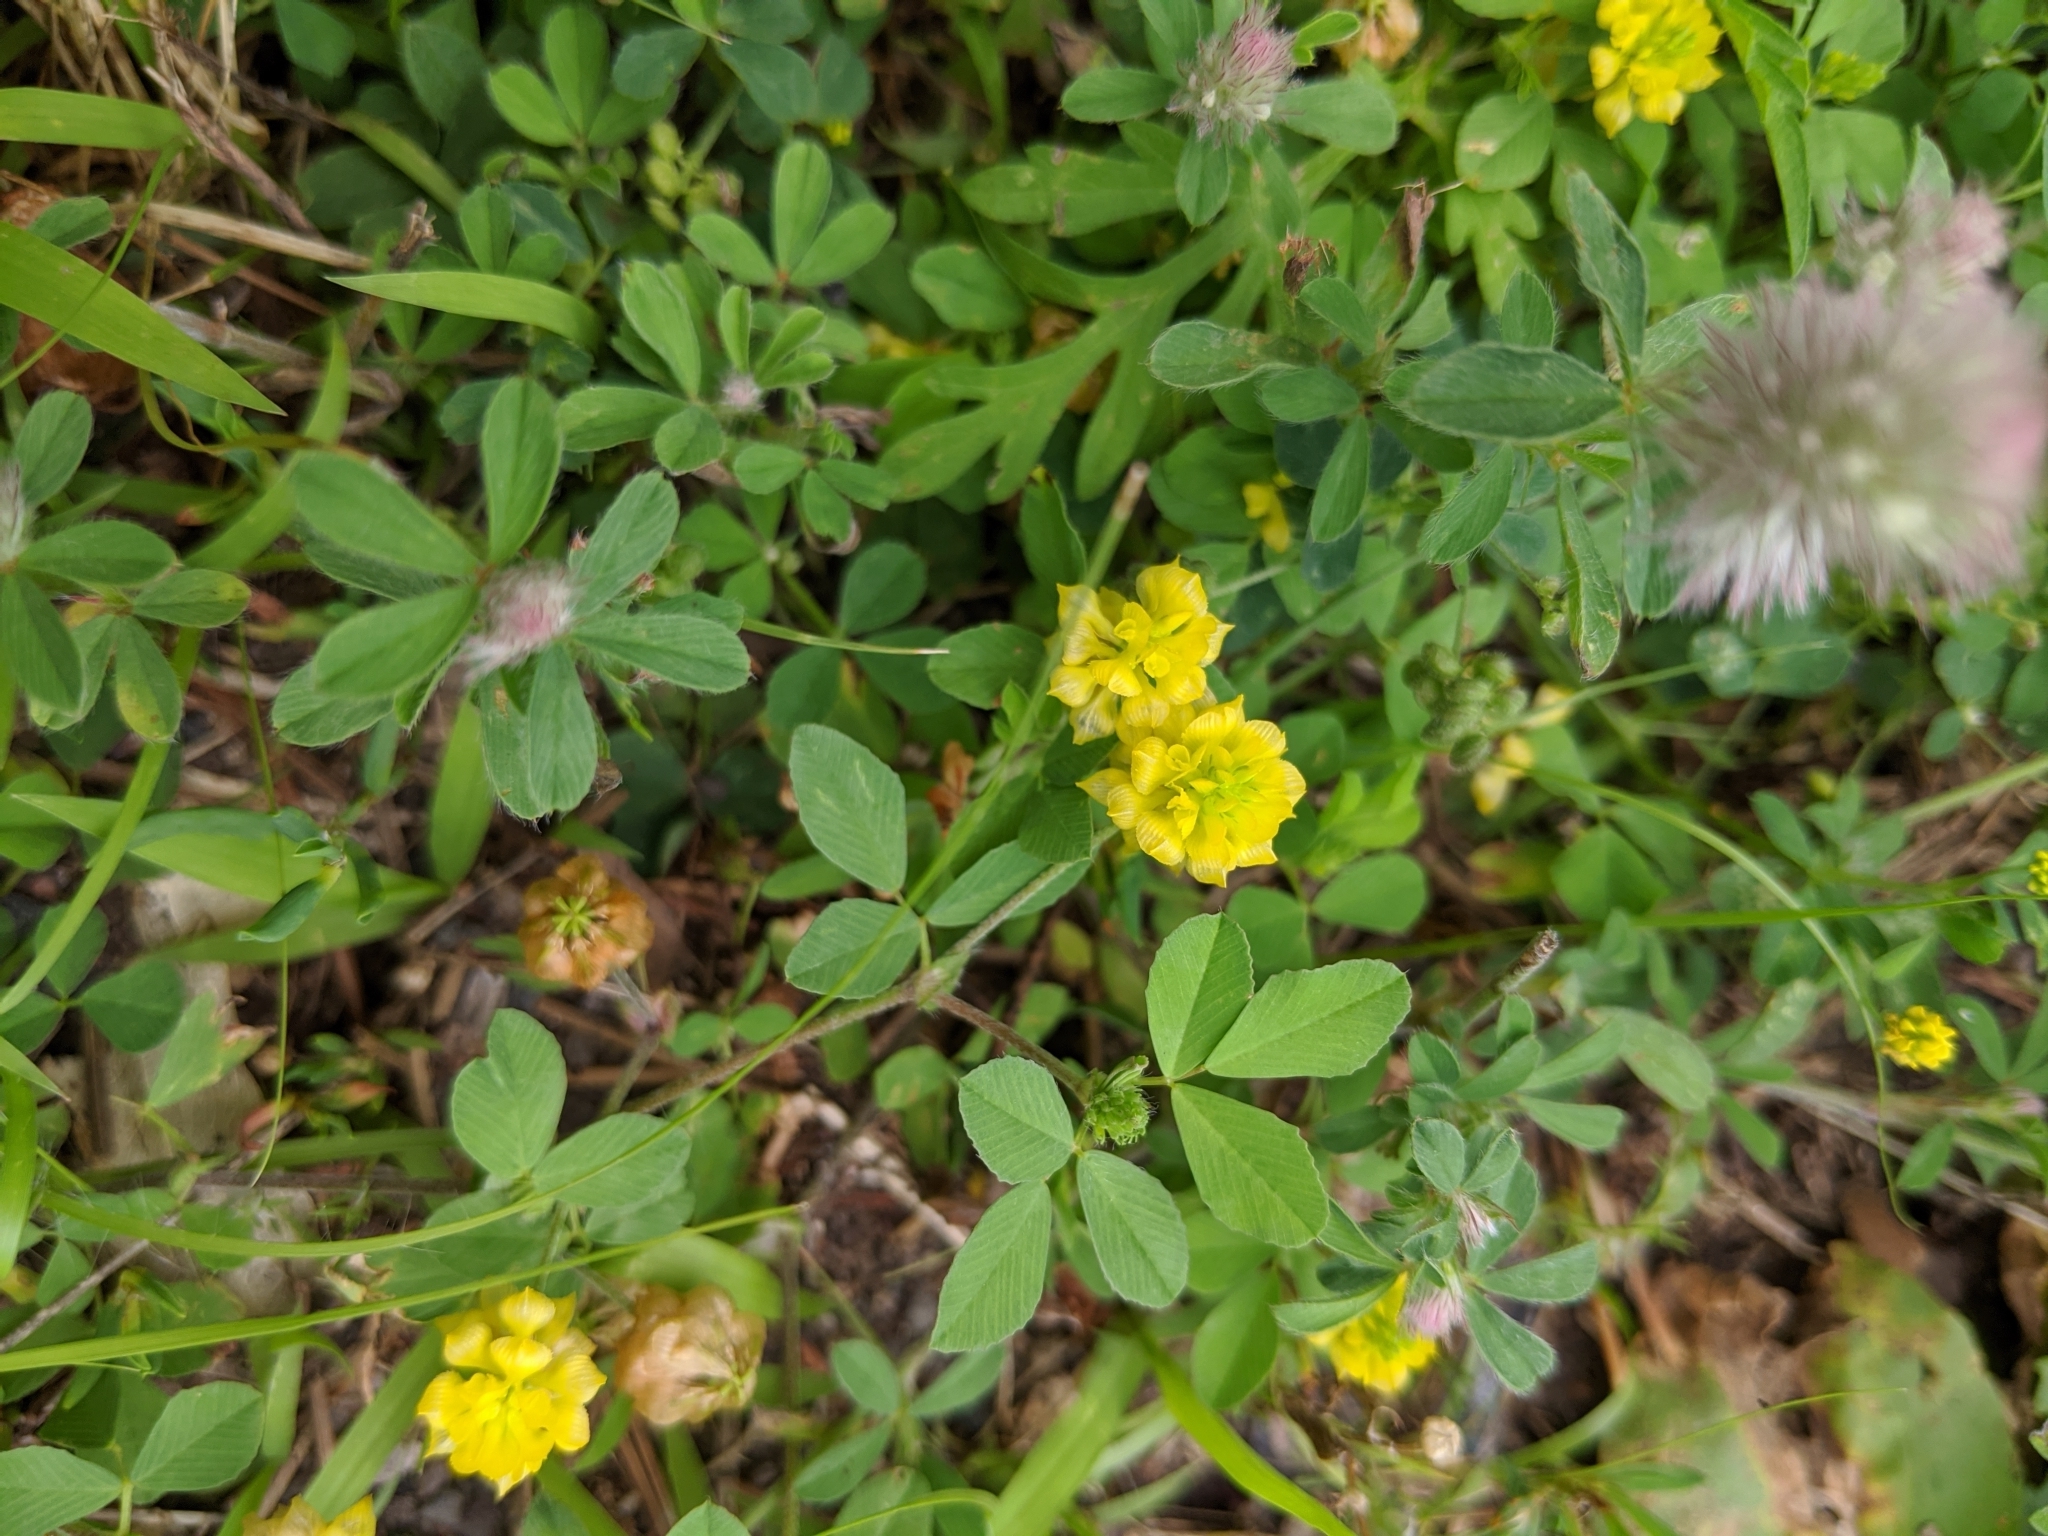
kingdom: Plantae
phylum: Tracheophyta
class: Magnoliopsida
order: Fabales
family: Fabaceae
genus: Trifolium
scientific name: Trifolium campestre
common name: Field clover
